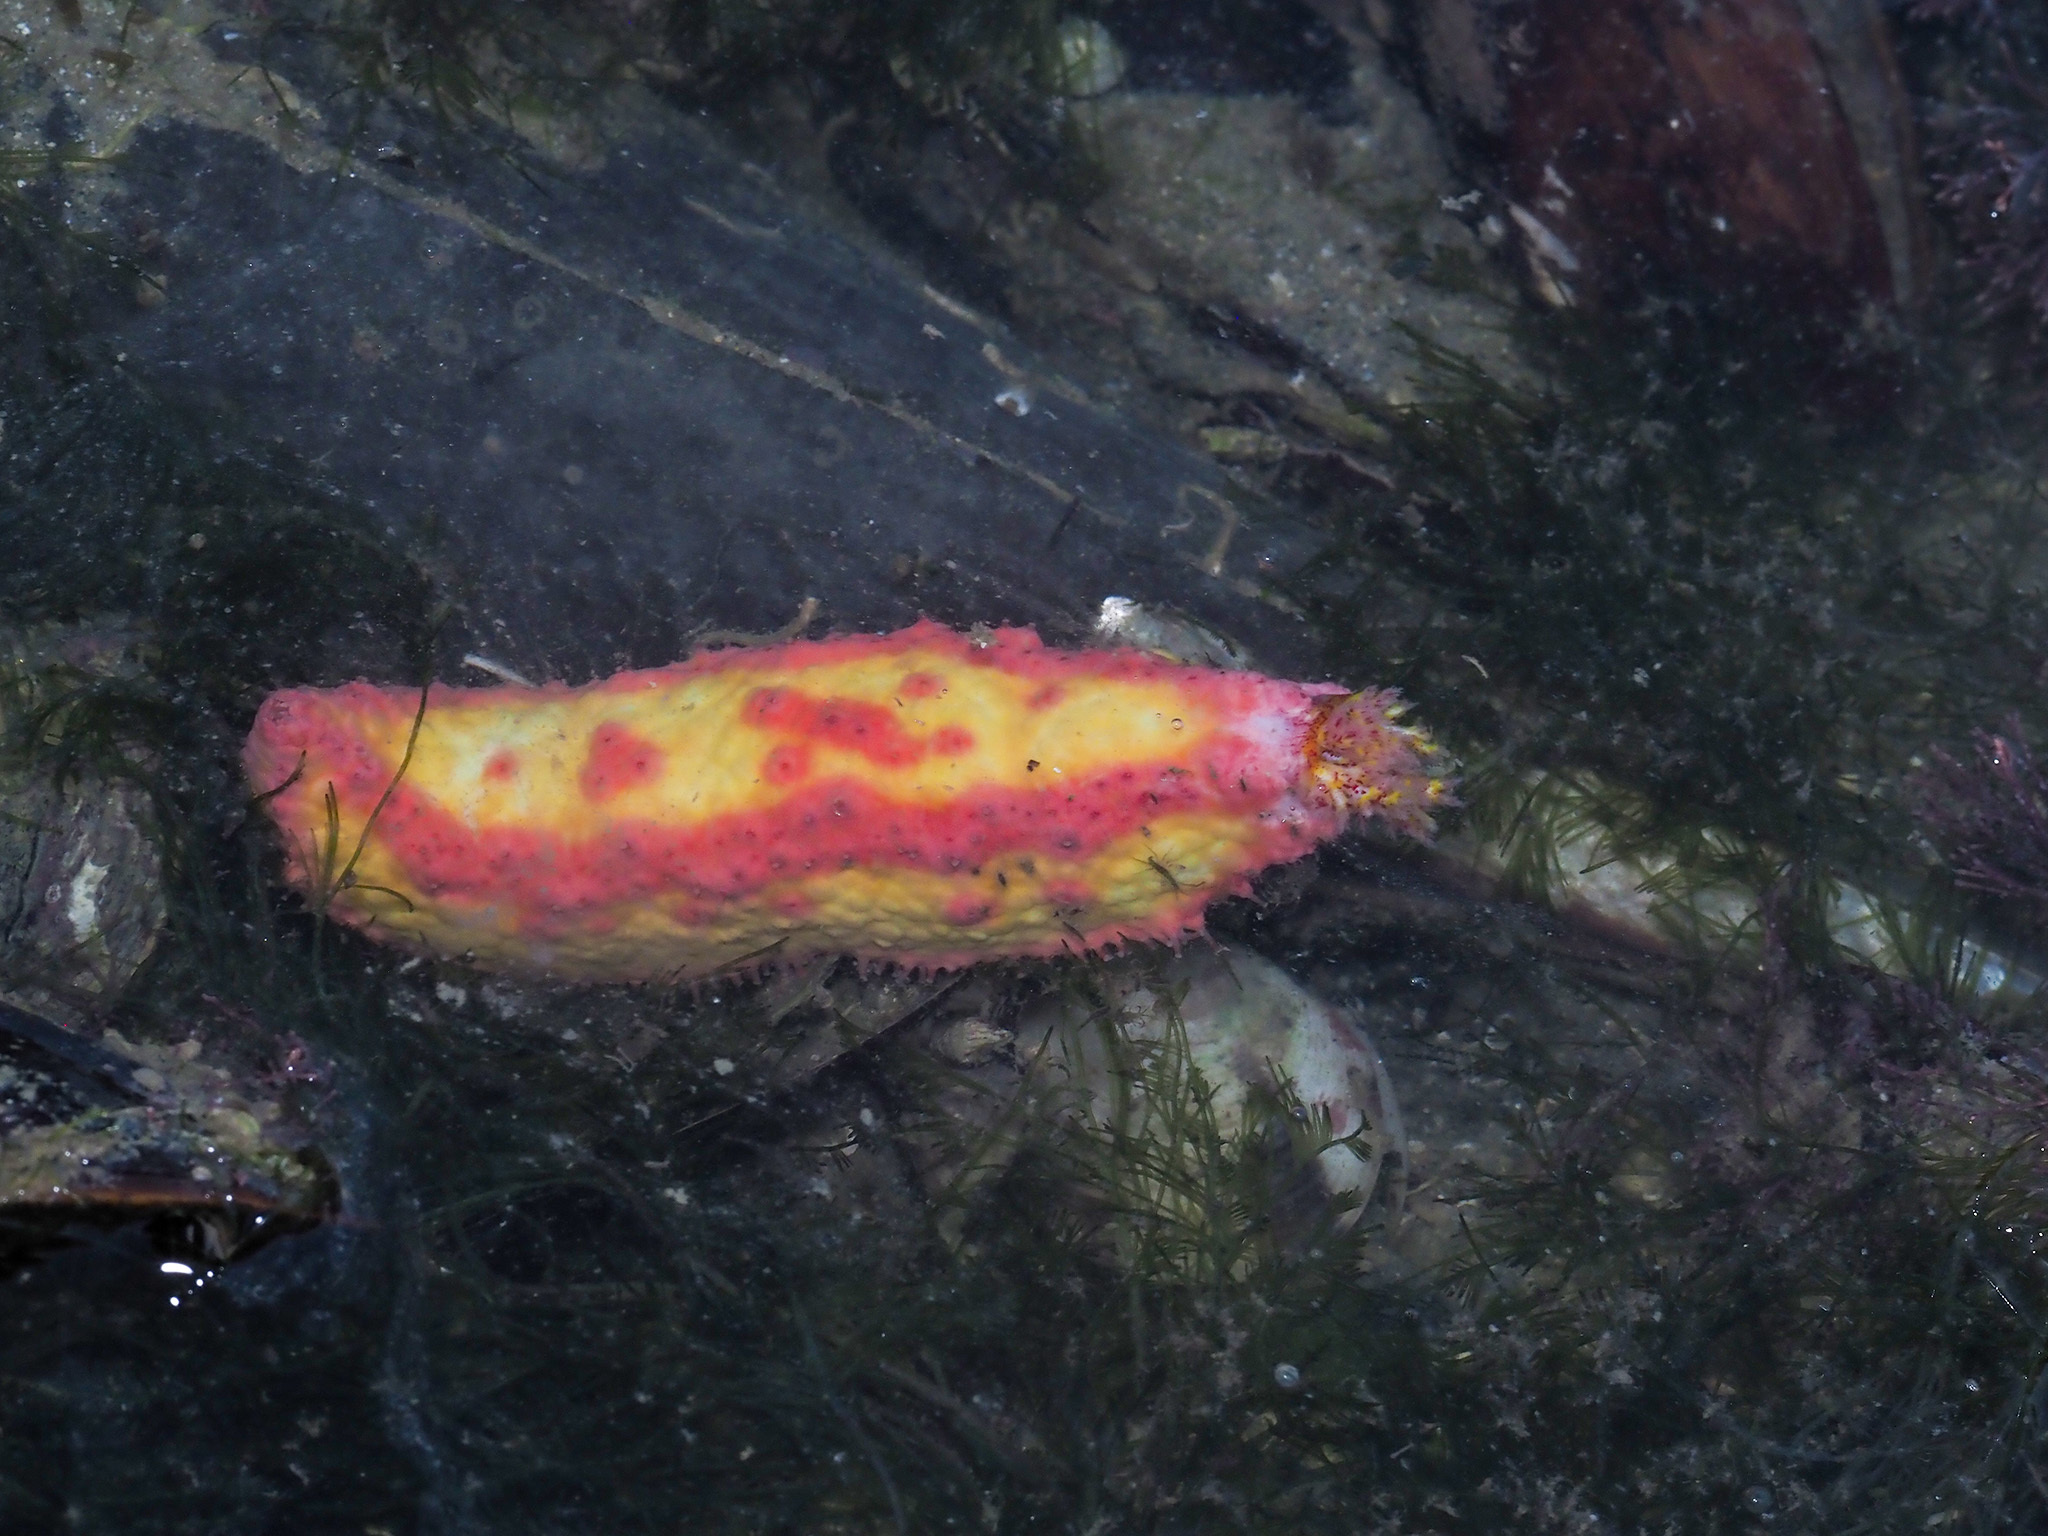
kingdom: Animalia
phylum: Echinodermata
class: Holothuroidea
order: Dendrochirotida
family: Cucumariidae
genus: Cercodemas
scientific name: Cercodemas anceps
